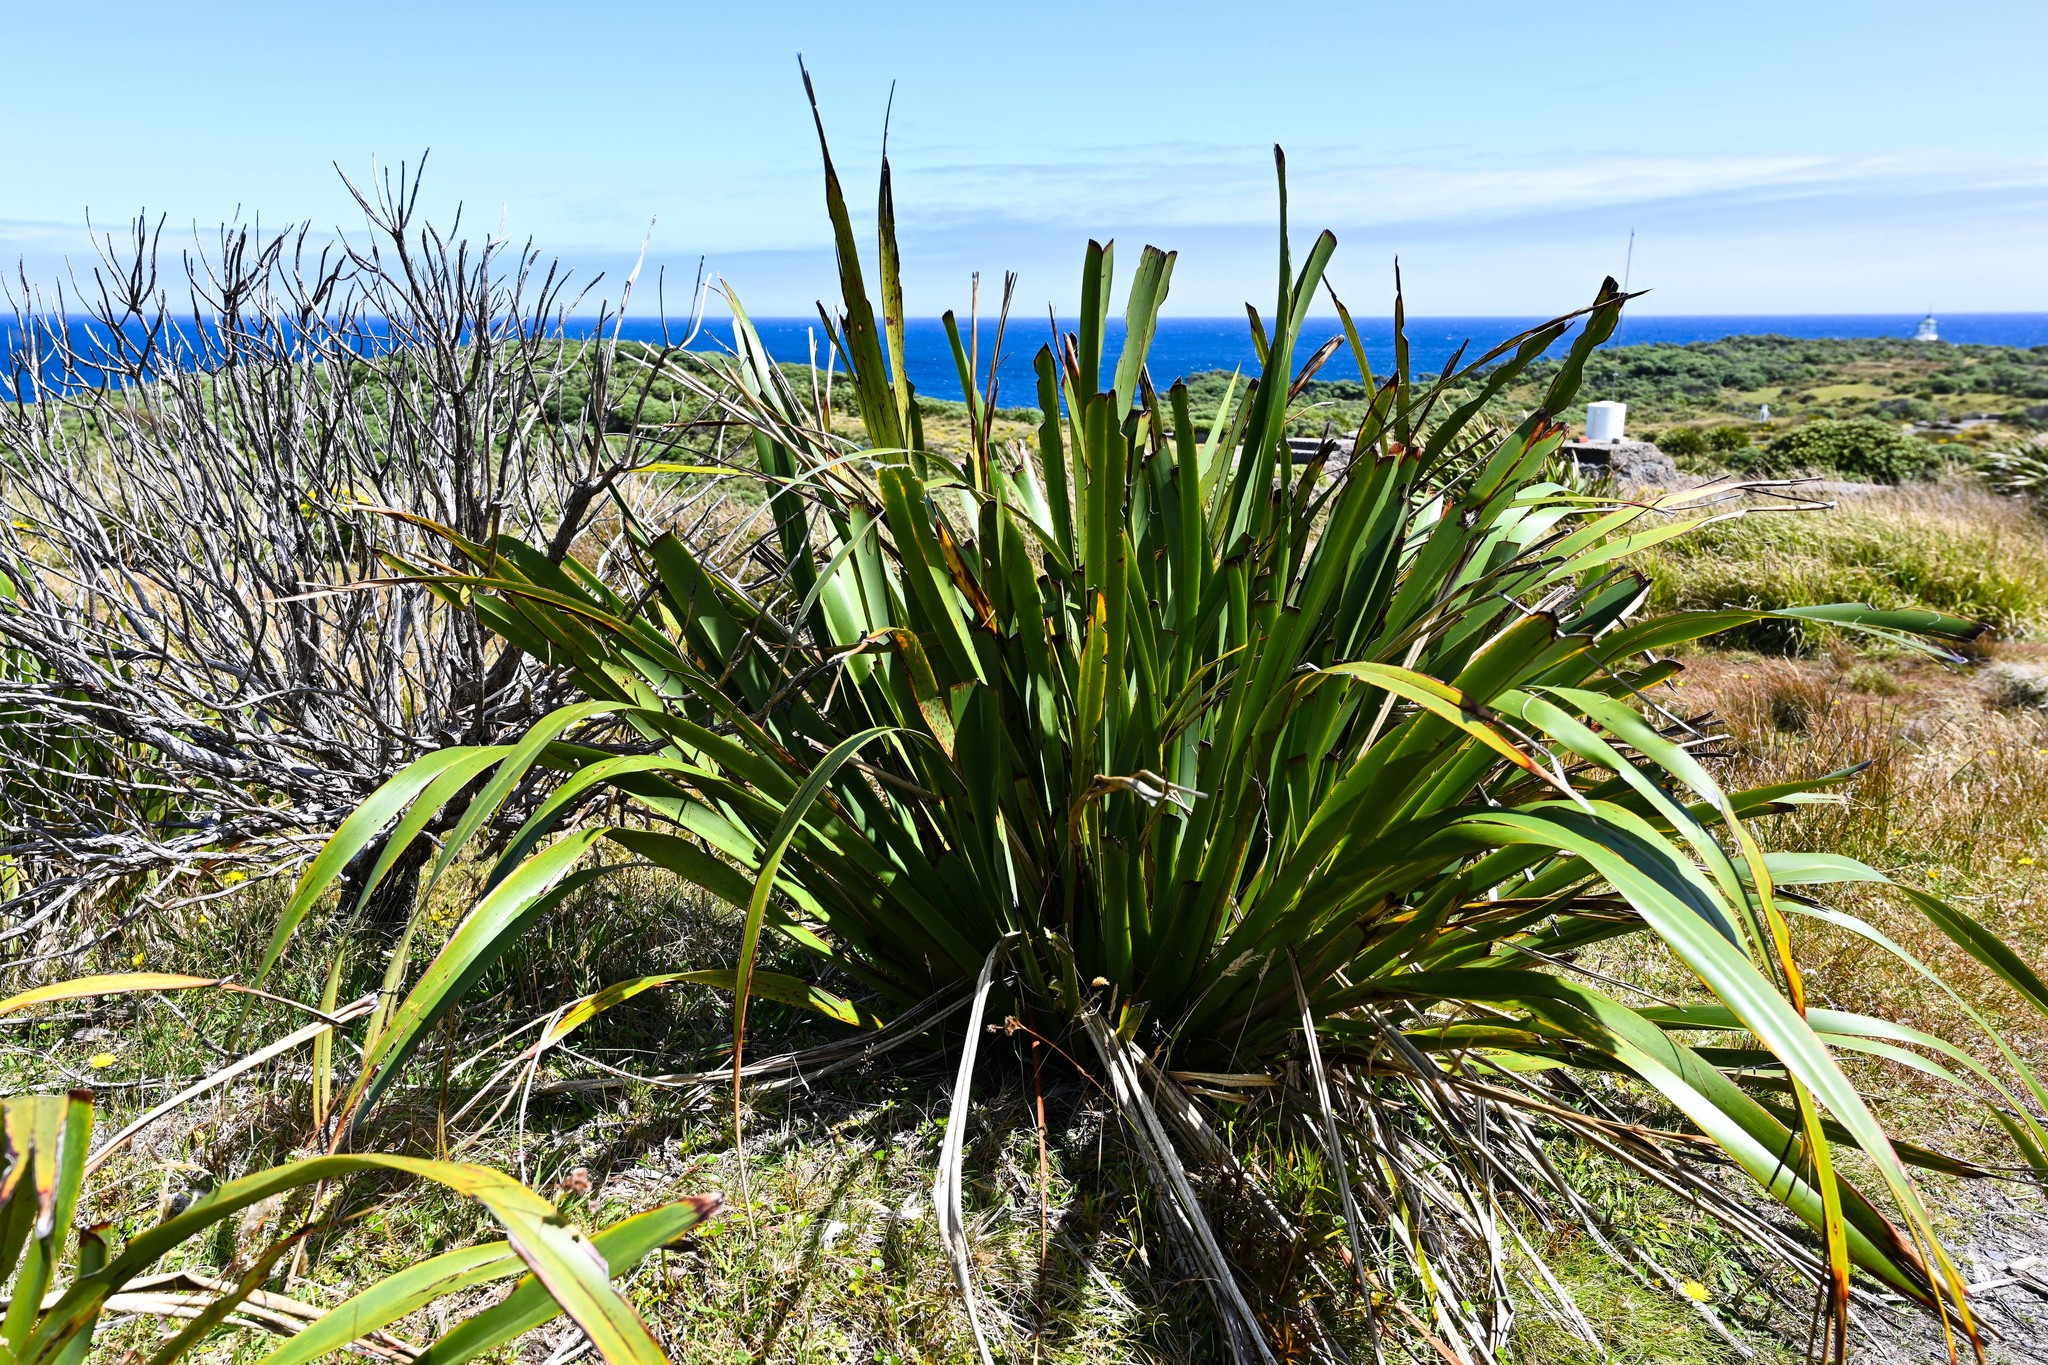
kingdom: Plantae
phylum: Tracheophyta
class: Liliopsida
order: Asparagales
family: Asphodelaceae
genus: Phormium
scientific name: Phormium tenax
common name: New zealand flax
